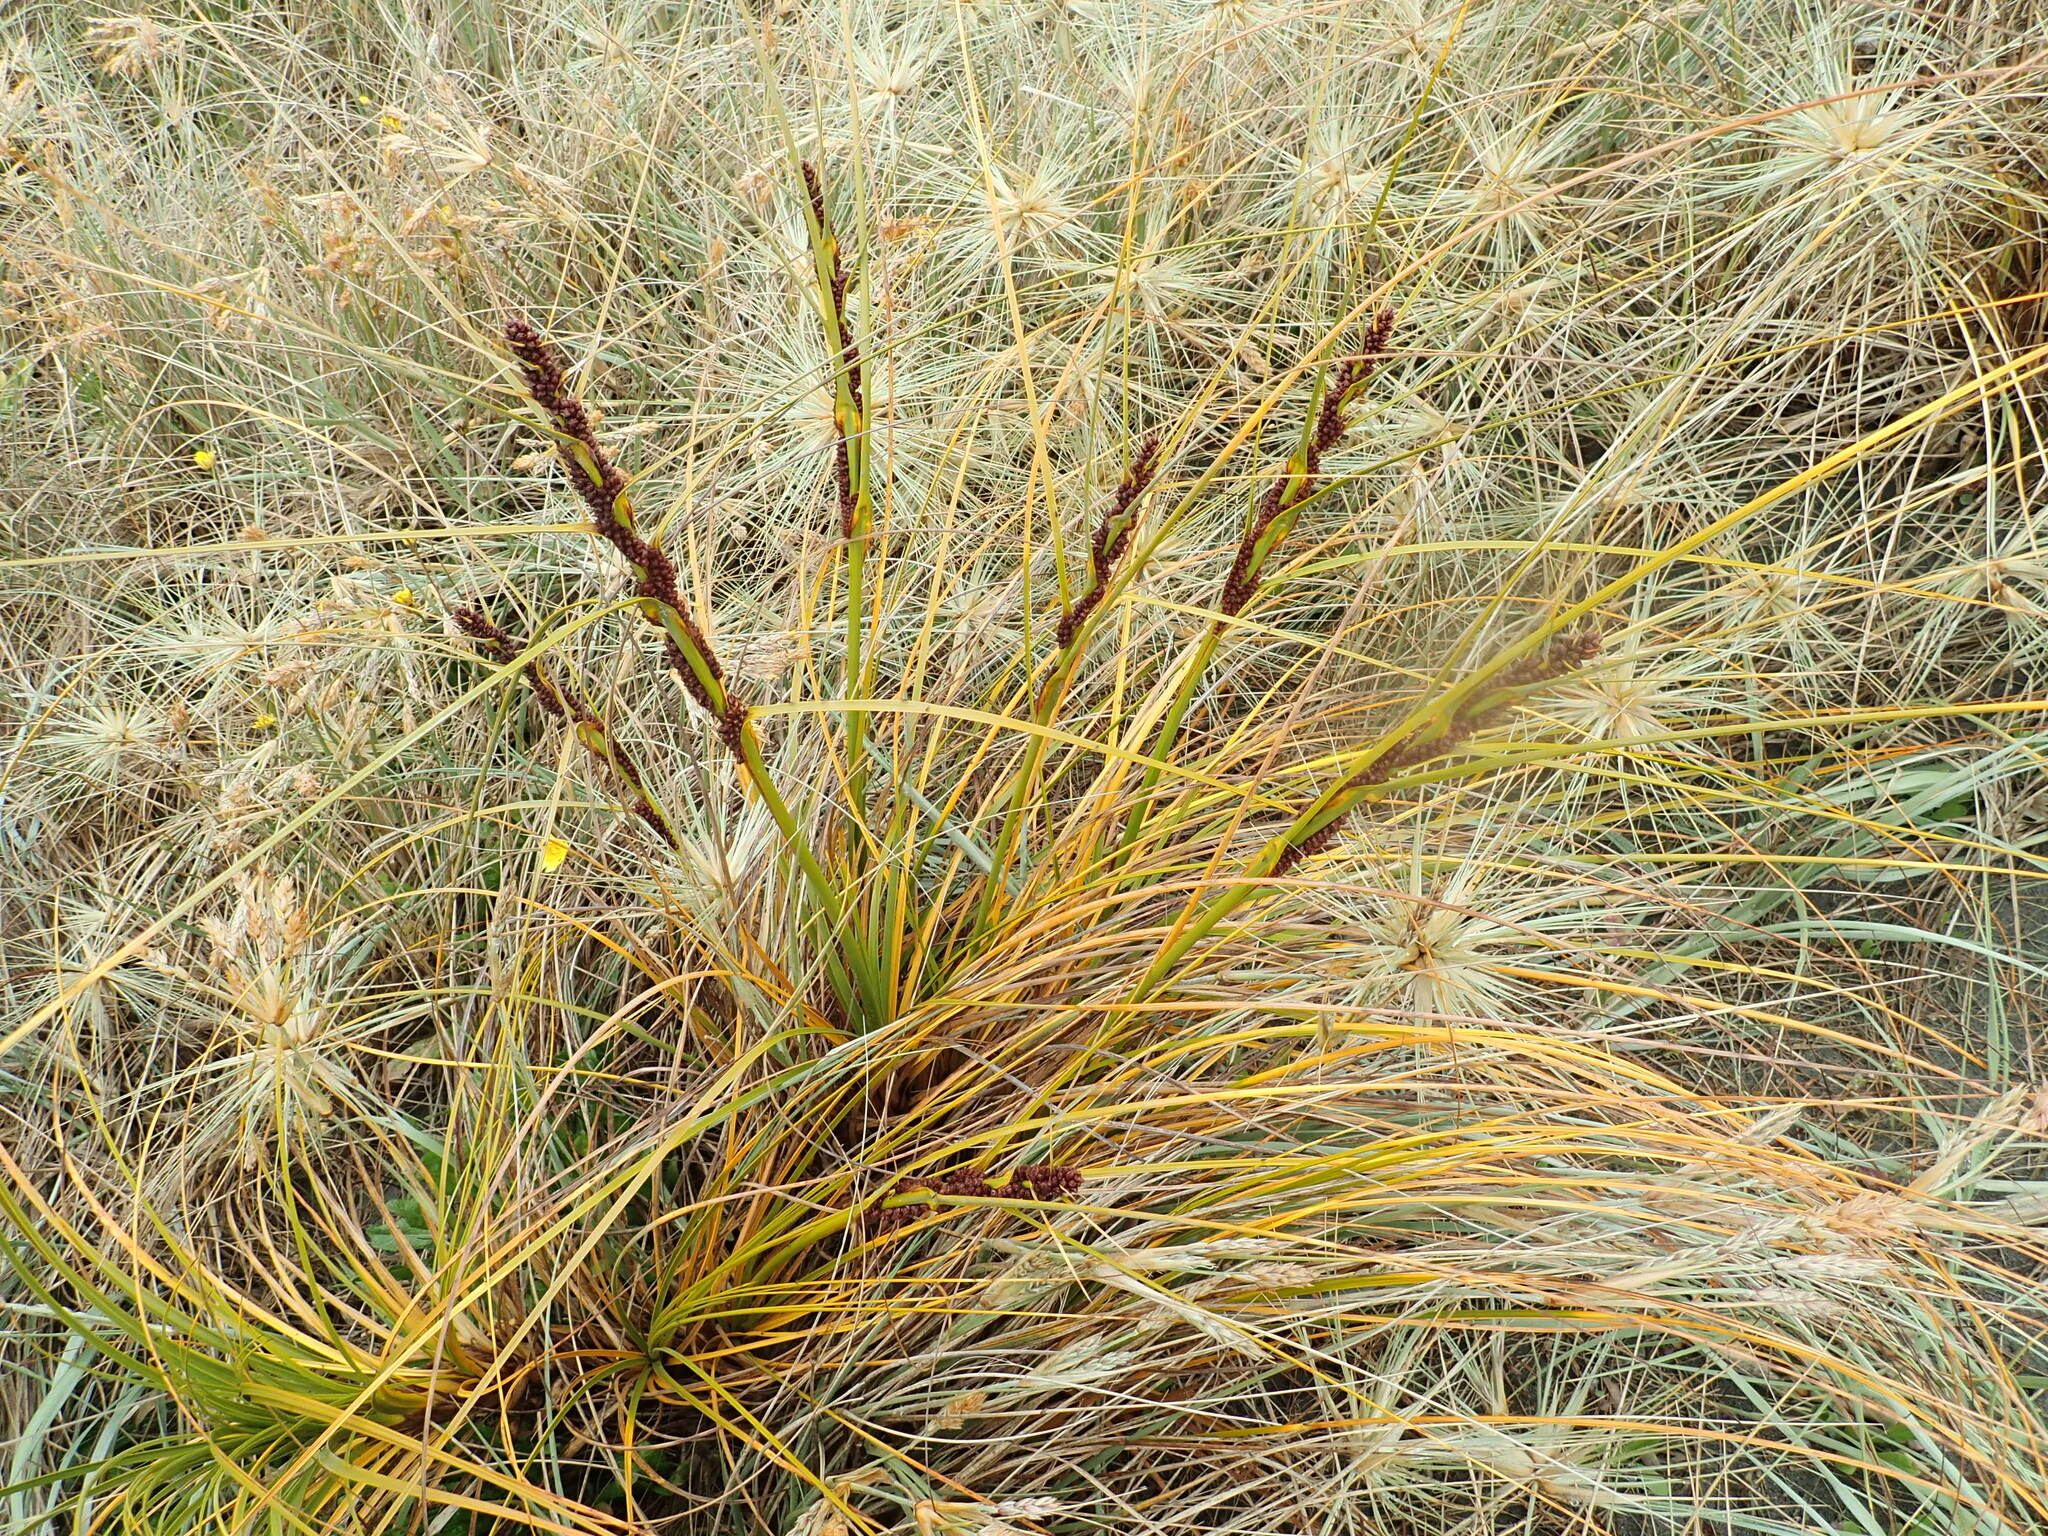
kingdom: Plantae
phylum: Tracheophyta
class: Liliopsida
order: Poales
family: Cyperaceae
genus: Ficinia
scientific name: Ficinia spiralis
